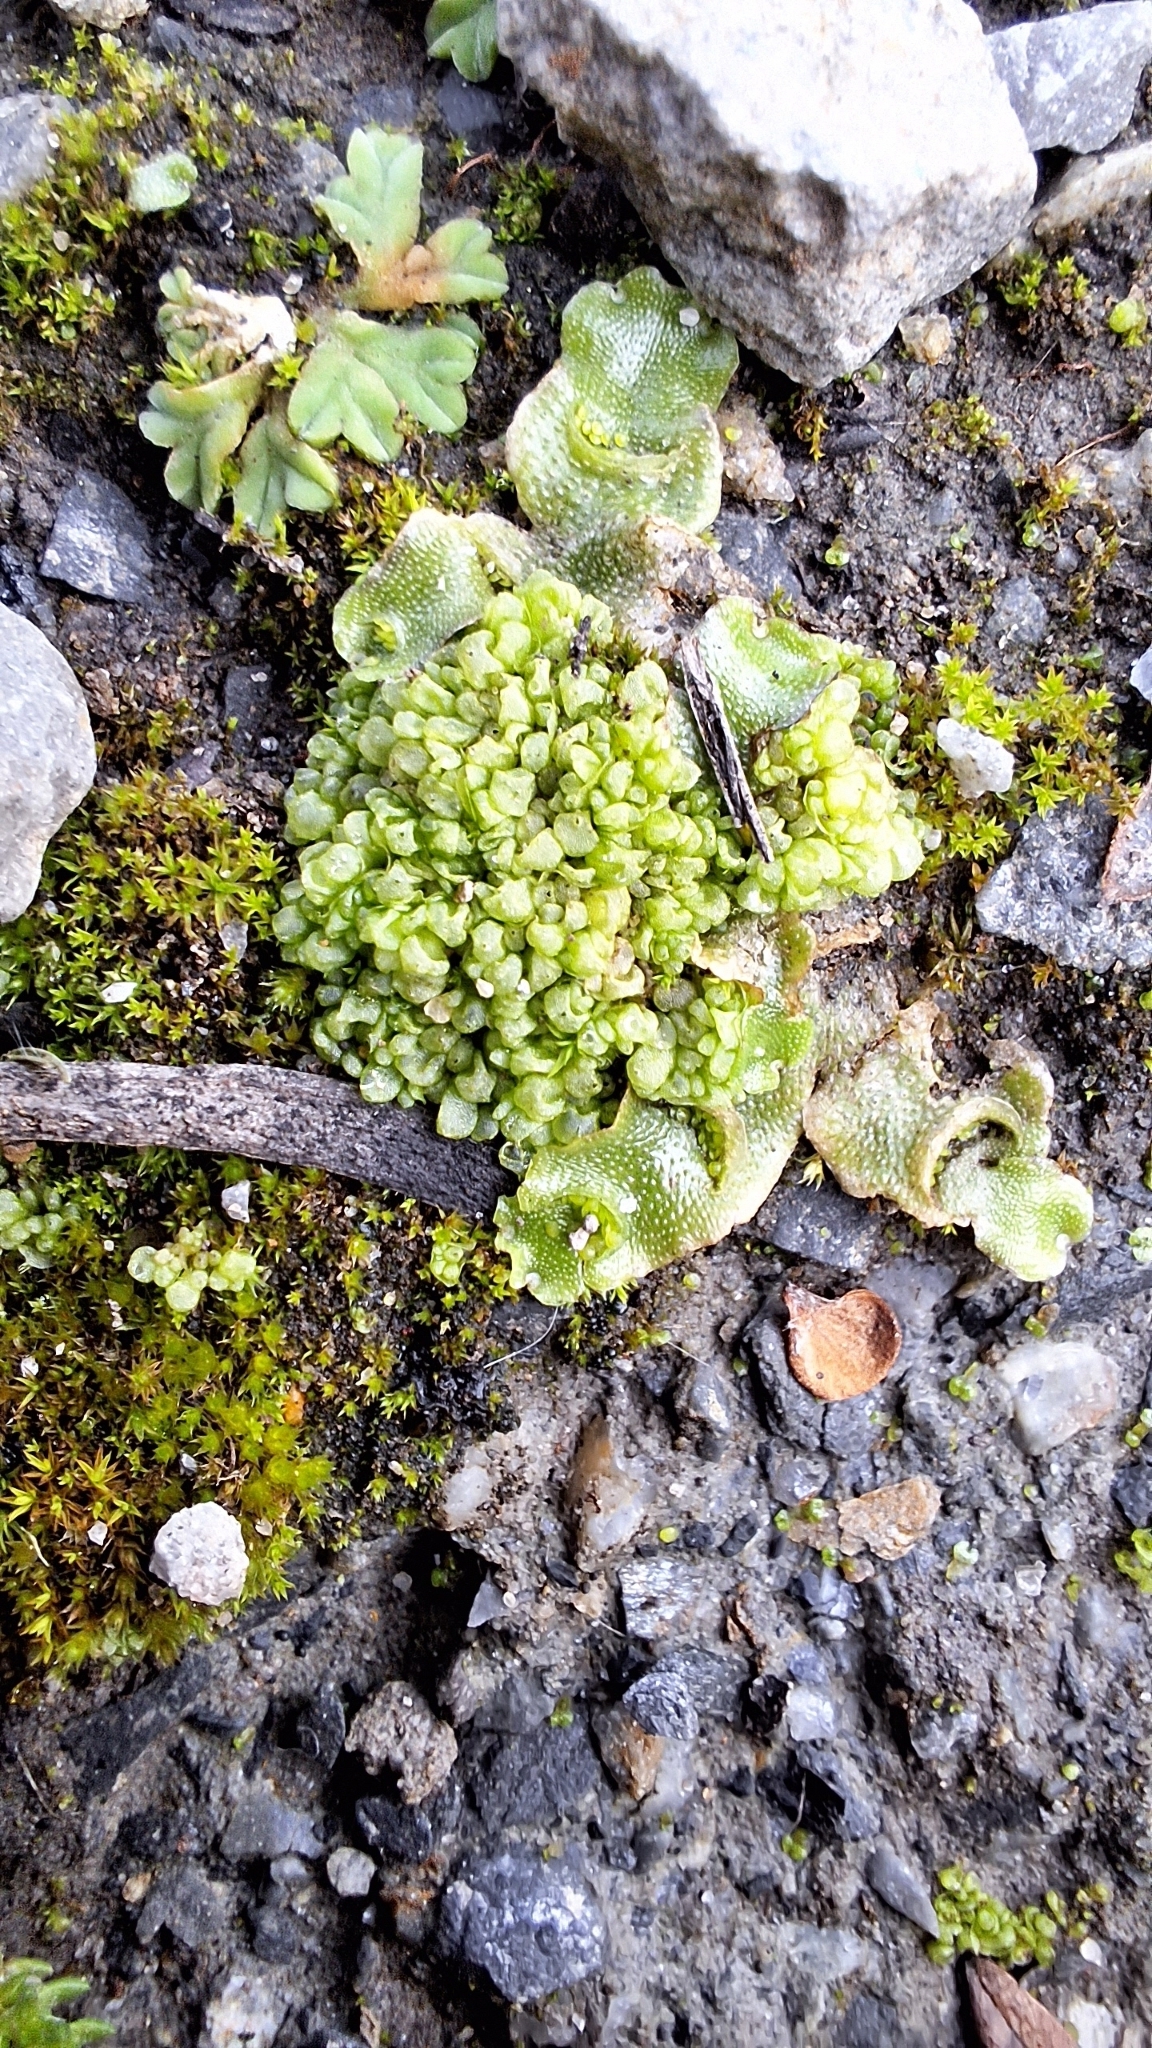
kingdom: Plantae
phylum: Marchantiophyta
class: Marchantiopsida
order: Lunulariales
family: Lunulariaceae
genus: Lunularia
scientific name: Lunularia cruciata
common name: Crescent-cup liverwort
